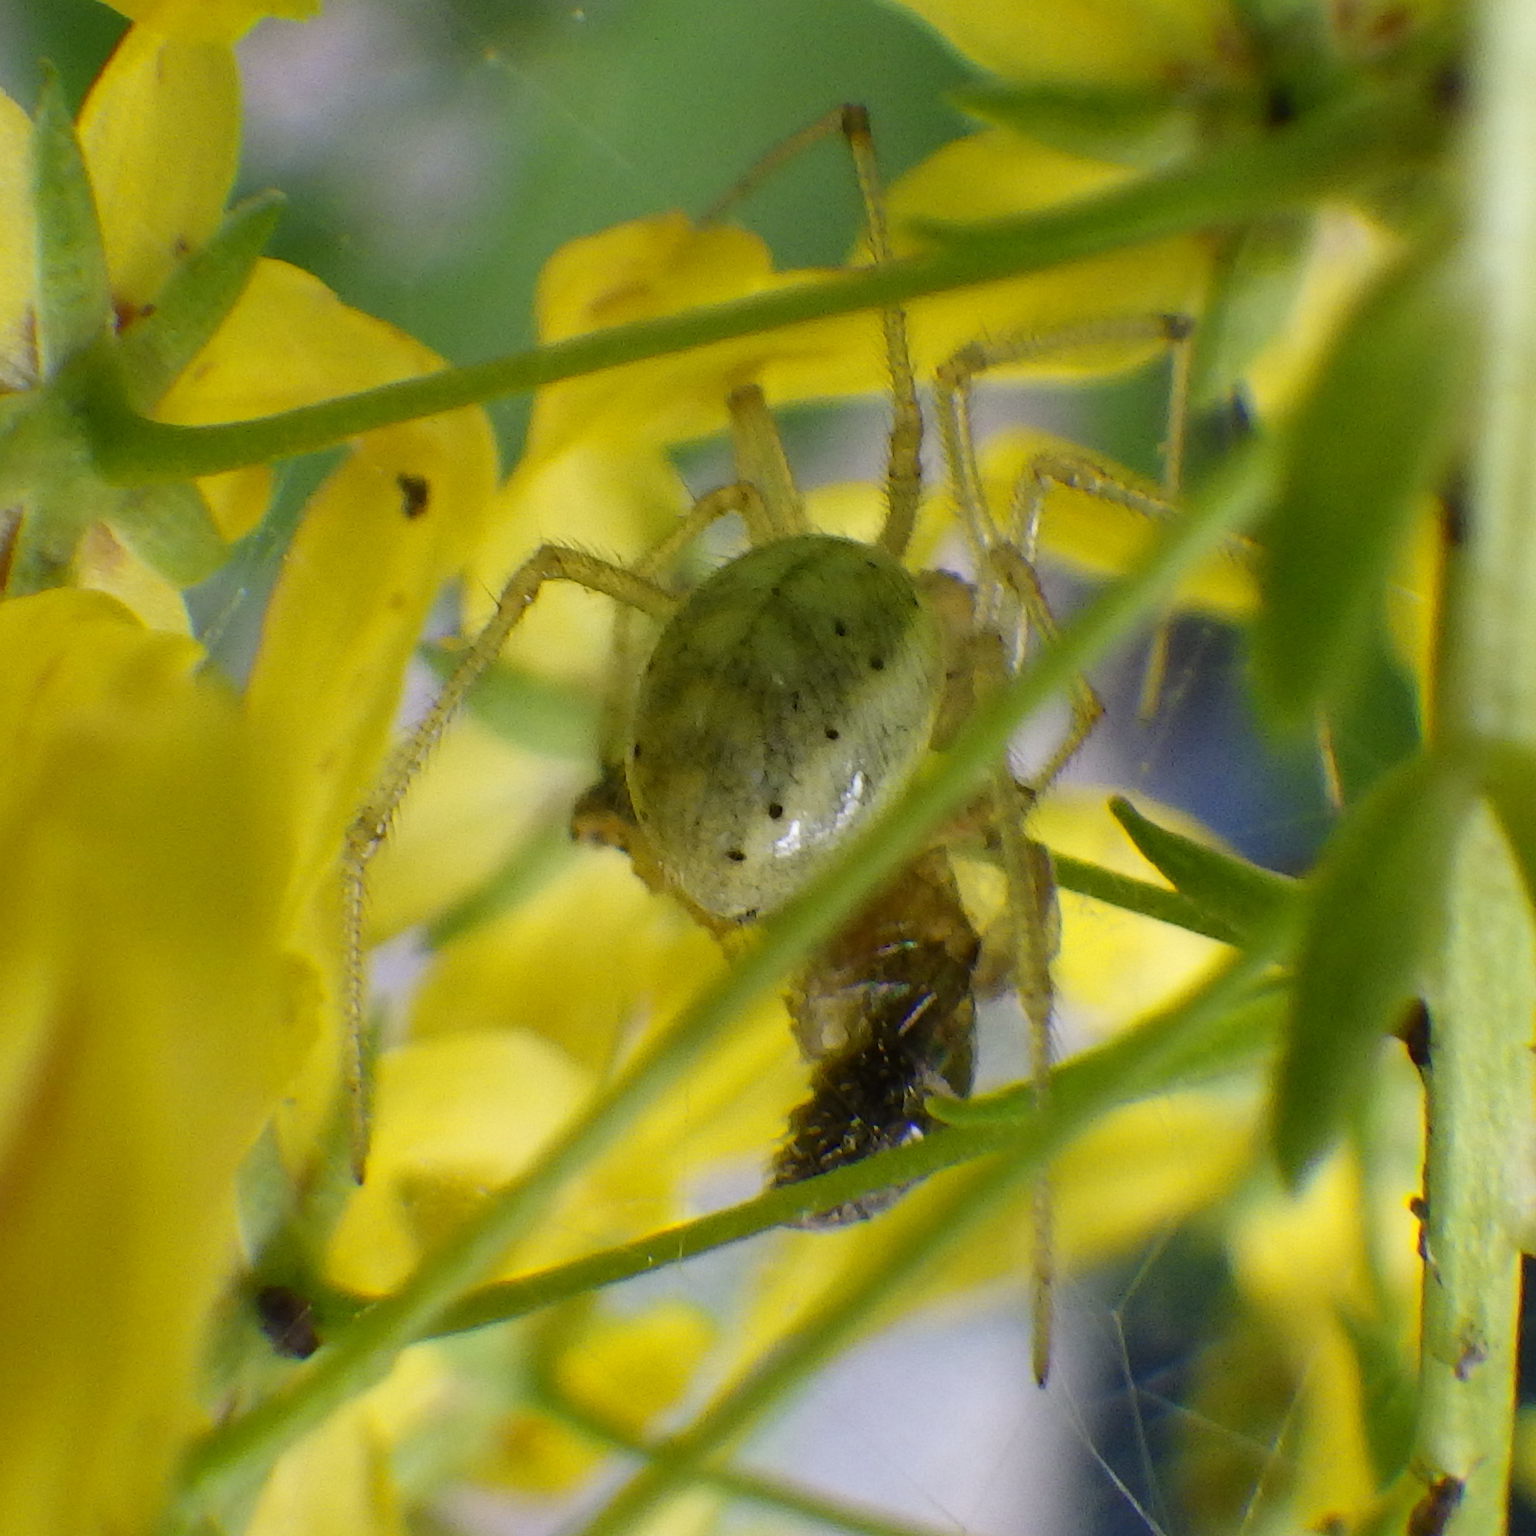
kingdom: Animalia
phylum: Arthropoda
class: Arachnida
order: Araneae
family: Theridiidae
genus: Enoplognatha
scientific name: Enoplognatha ovata
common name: Common candy-striped spider
